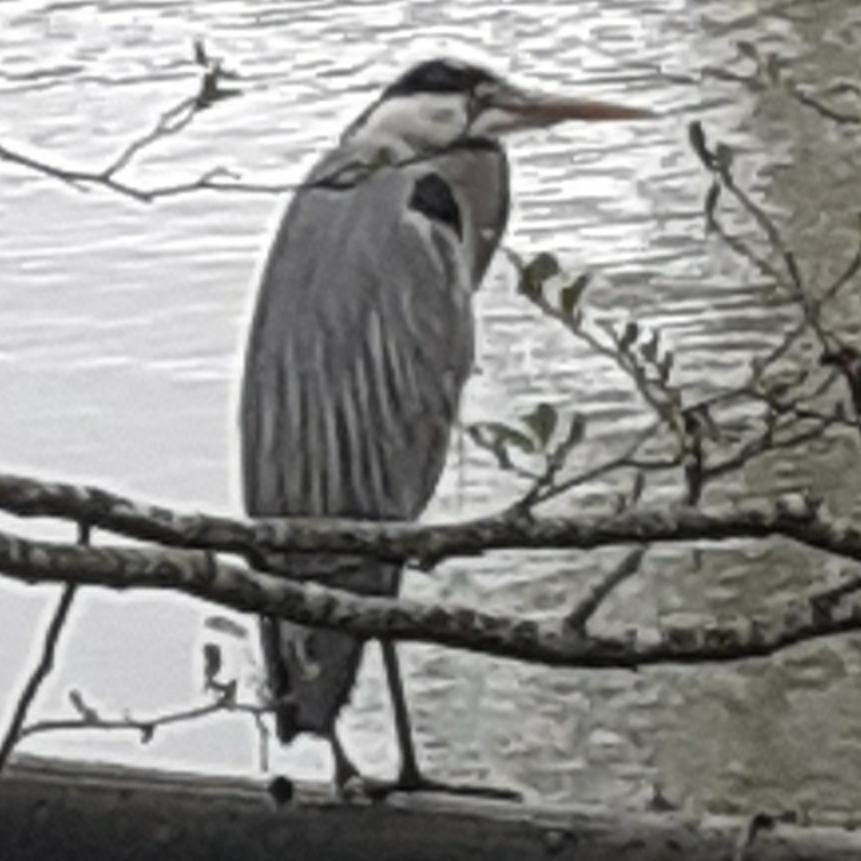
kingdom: Animalia
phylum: Chordata
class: Aves
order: Pelecaniformes
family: Ardeidae
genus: Ardea
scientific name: Ardea cinerea
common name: Grey heron
